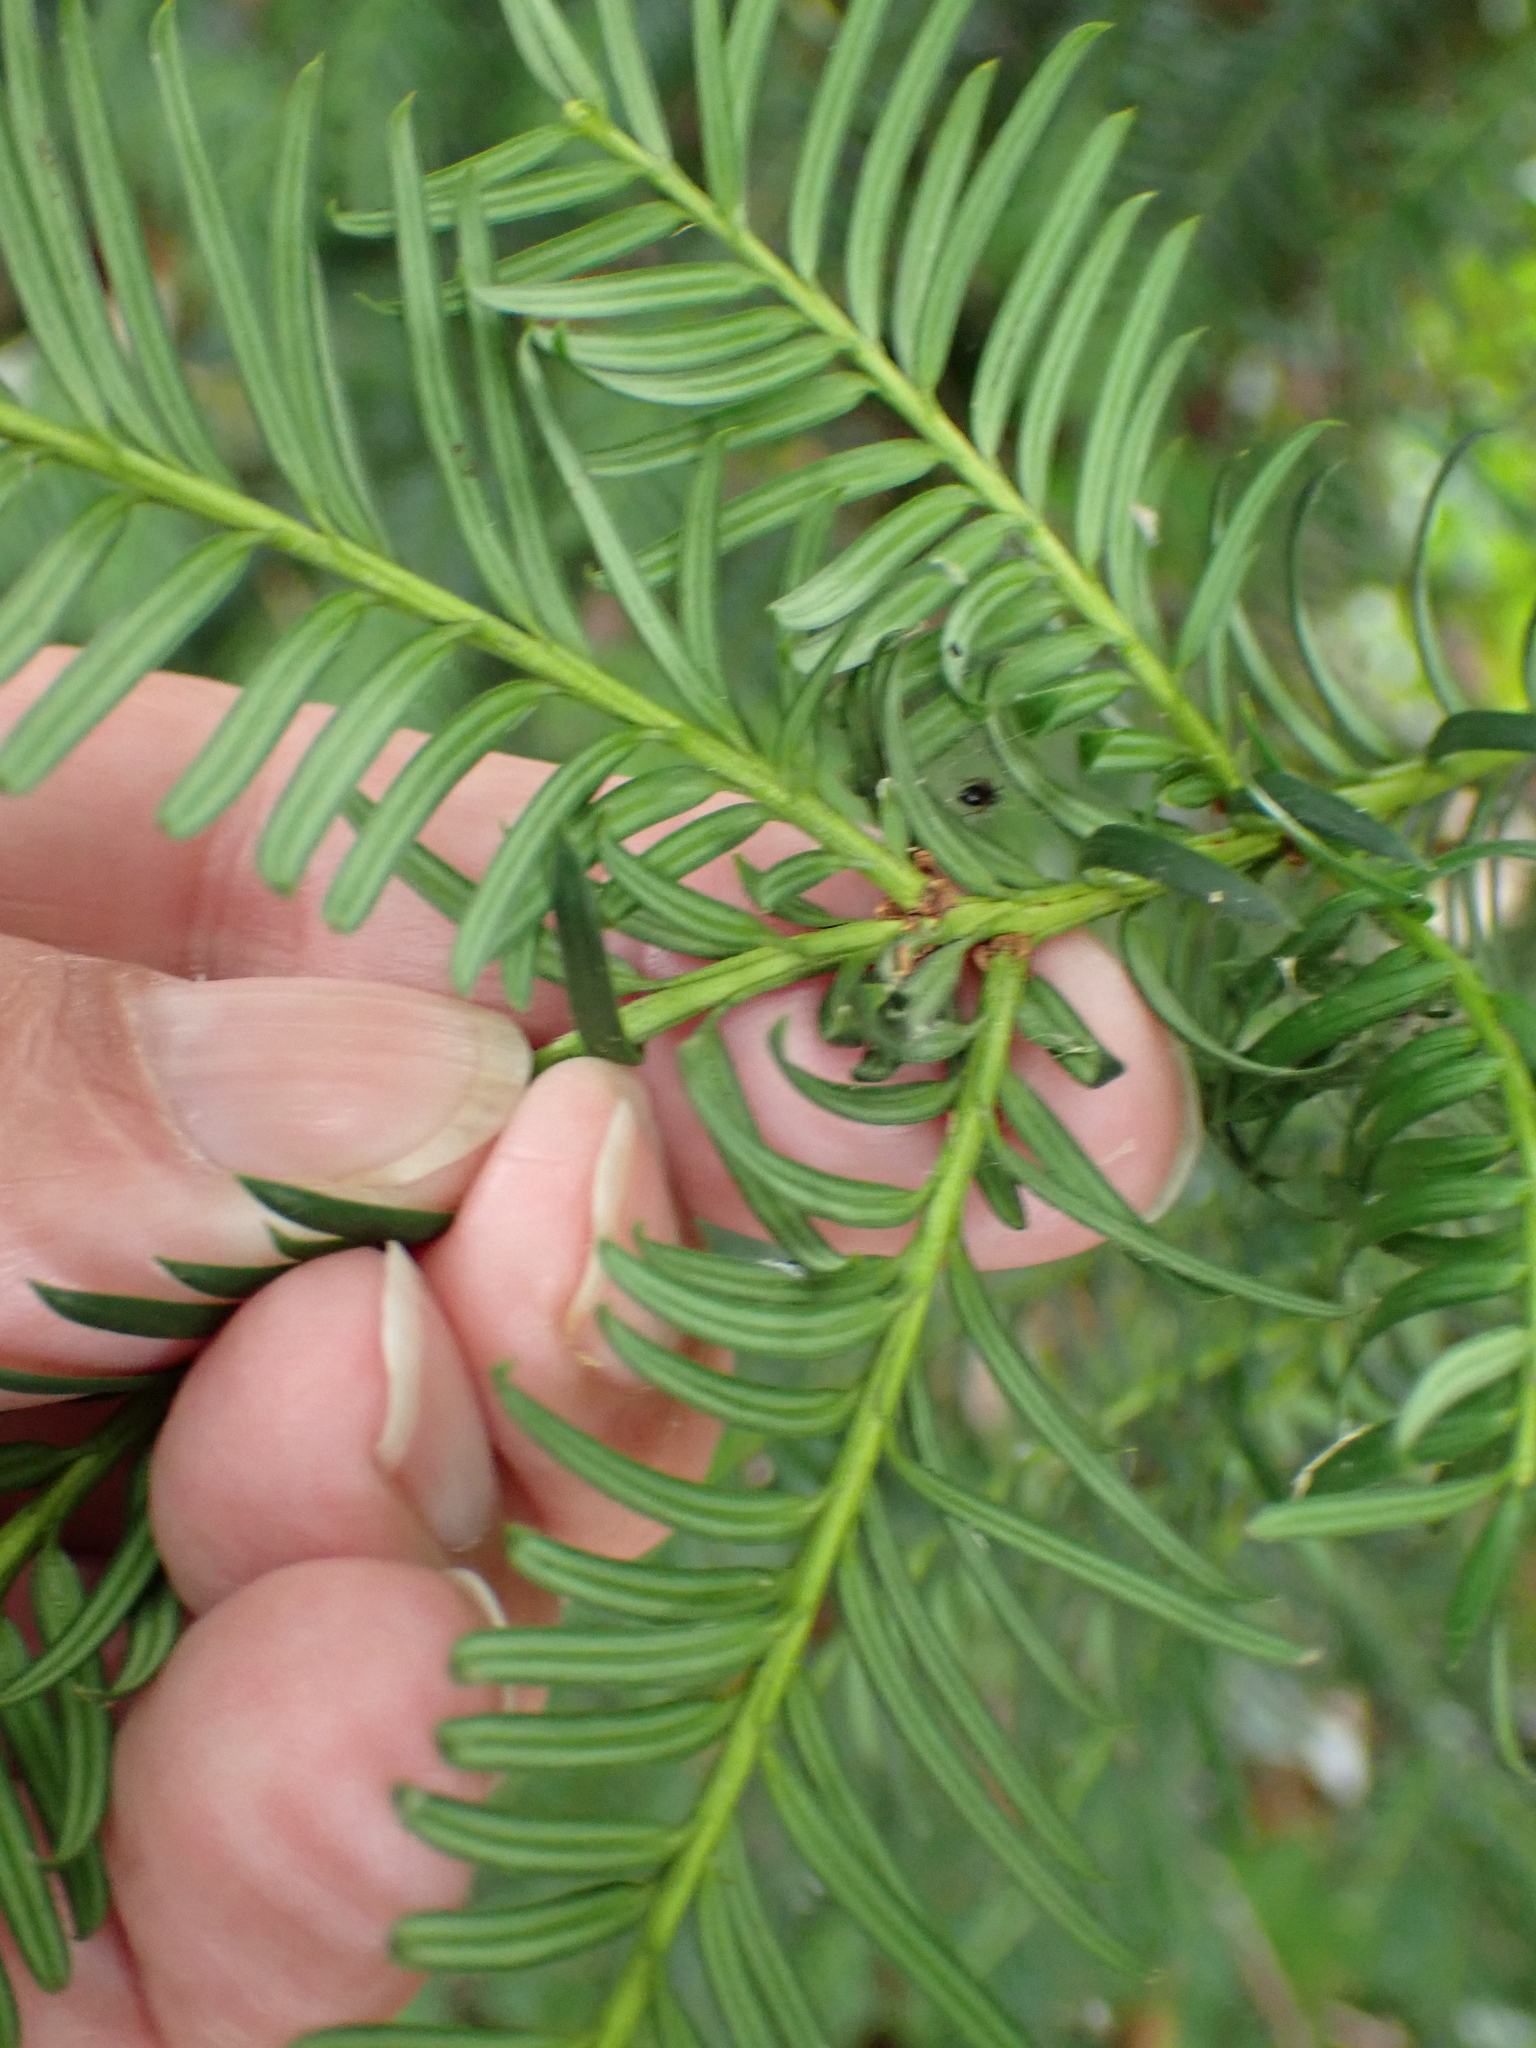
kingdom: Plantae
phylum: Tracheophyta
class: Pinopsida
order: Pinales
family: Taxaceae
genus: Taxus
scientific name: Taxus baccata
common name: Yew
